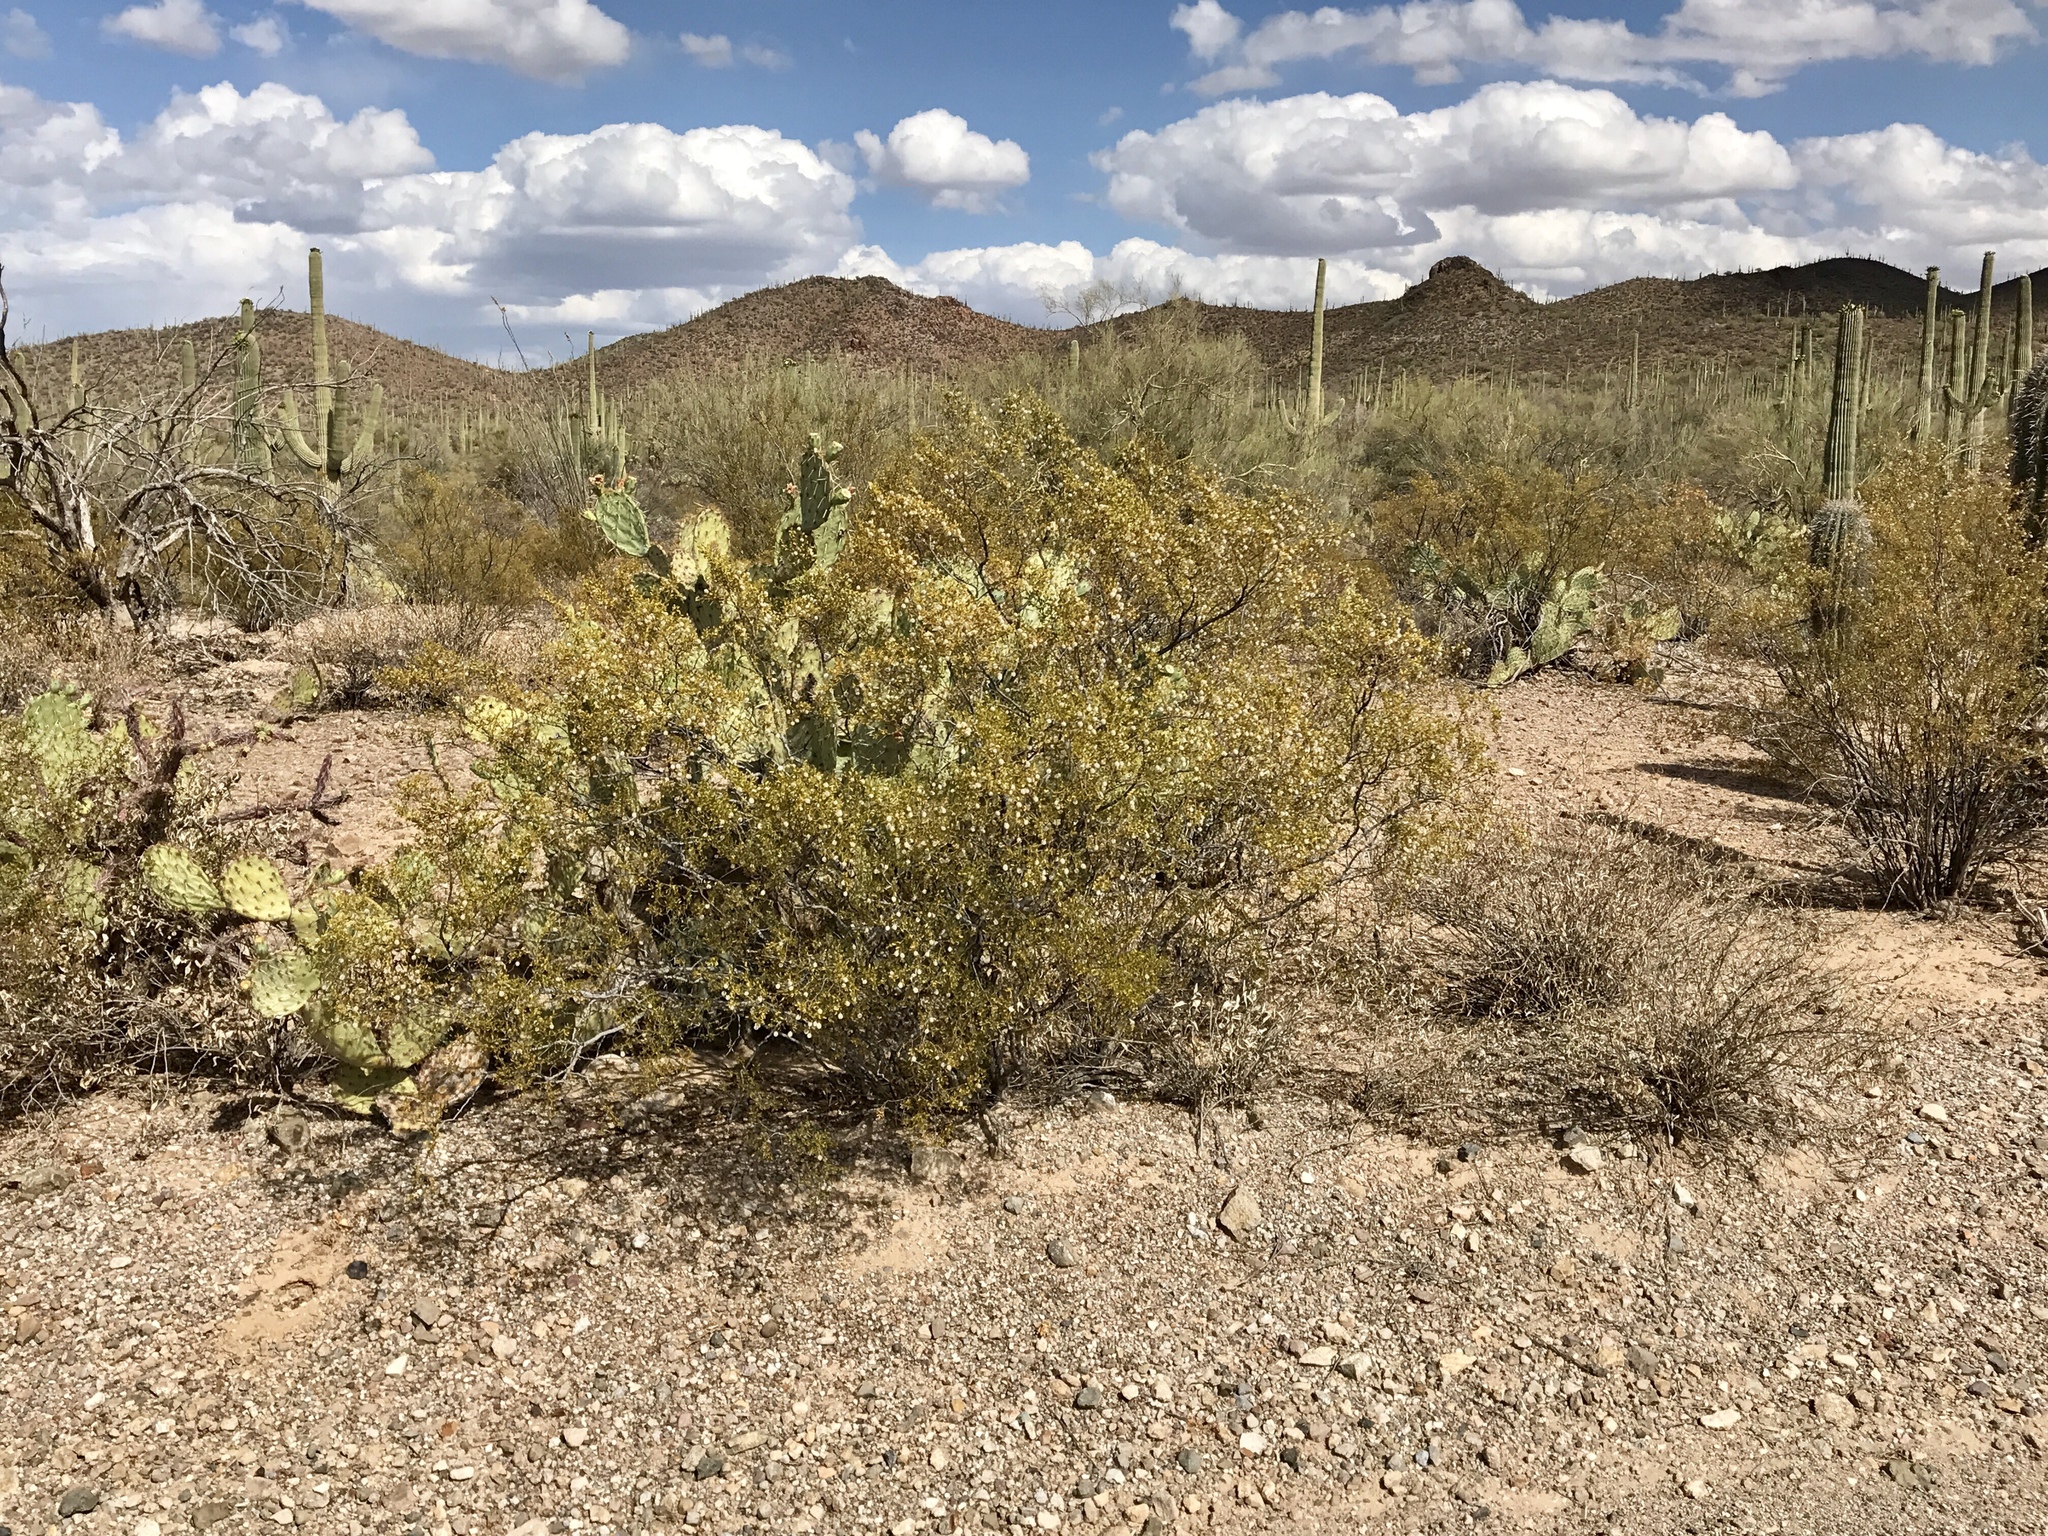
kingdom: Plantae
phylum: Tracheophyta
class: Magnoliopsida
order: Zygophyllales
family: Zygophyllaceae
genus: Larrea
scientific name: Larrea tridentata
